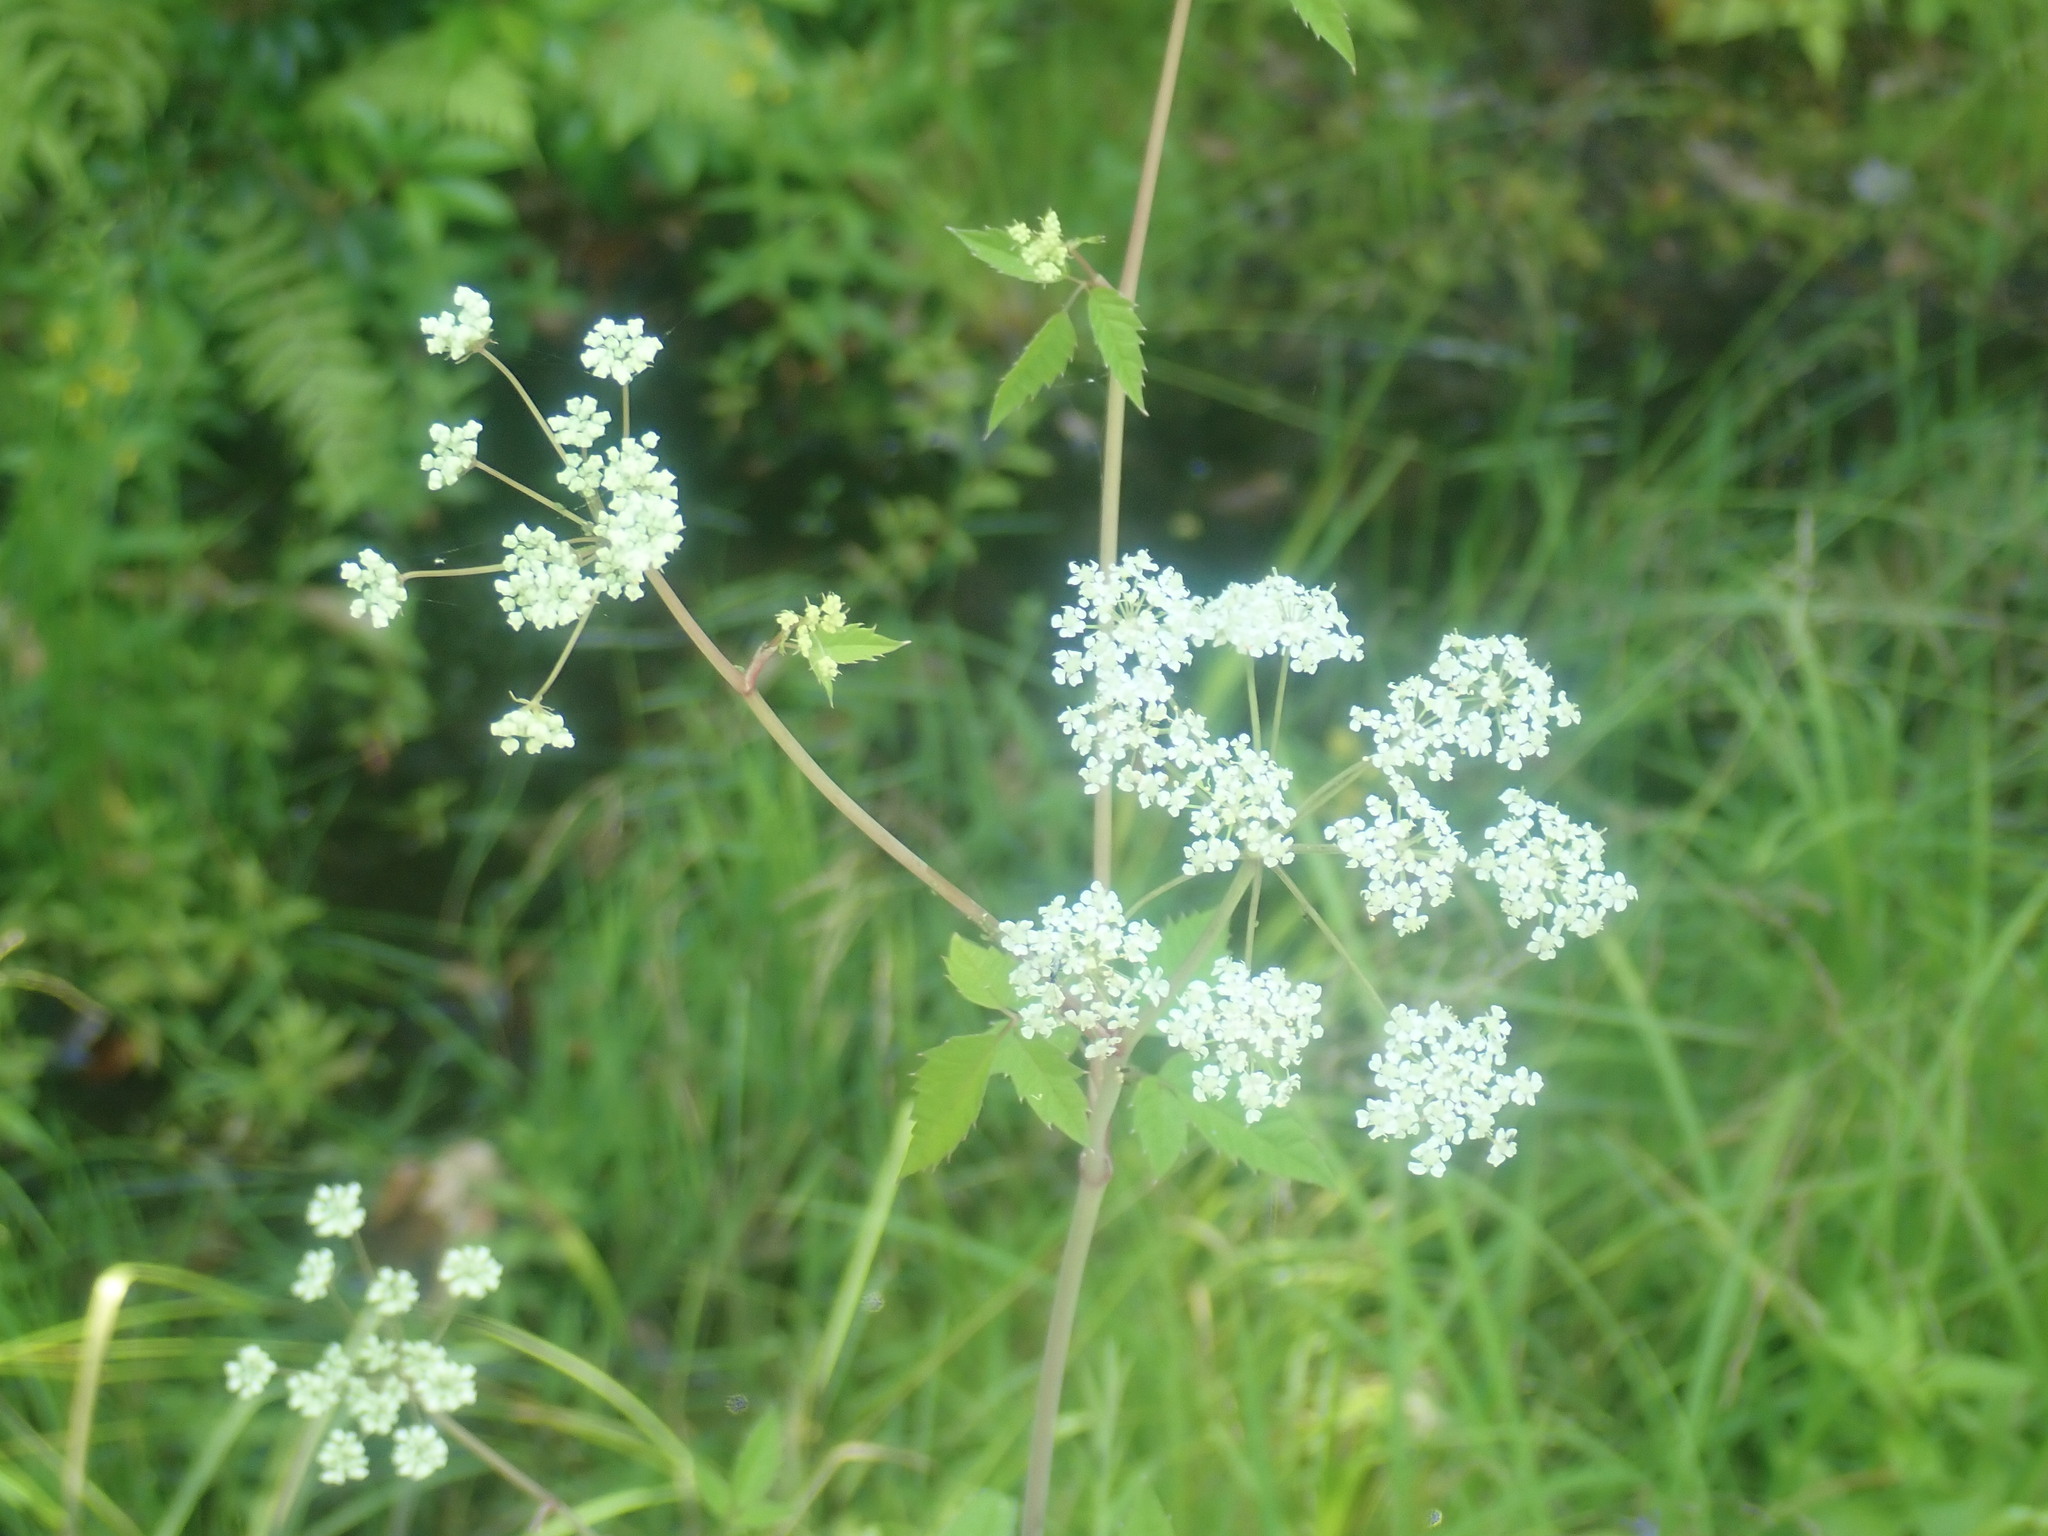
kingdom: Plantae
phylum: Tracheophyta
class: Magnoliopsida
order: Apiales
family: Apiaceae
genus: Cicuta
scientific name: Cicuta maculata
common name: Spotted cowbane
